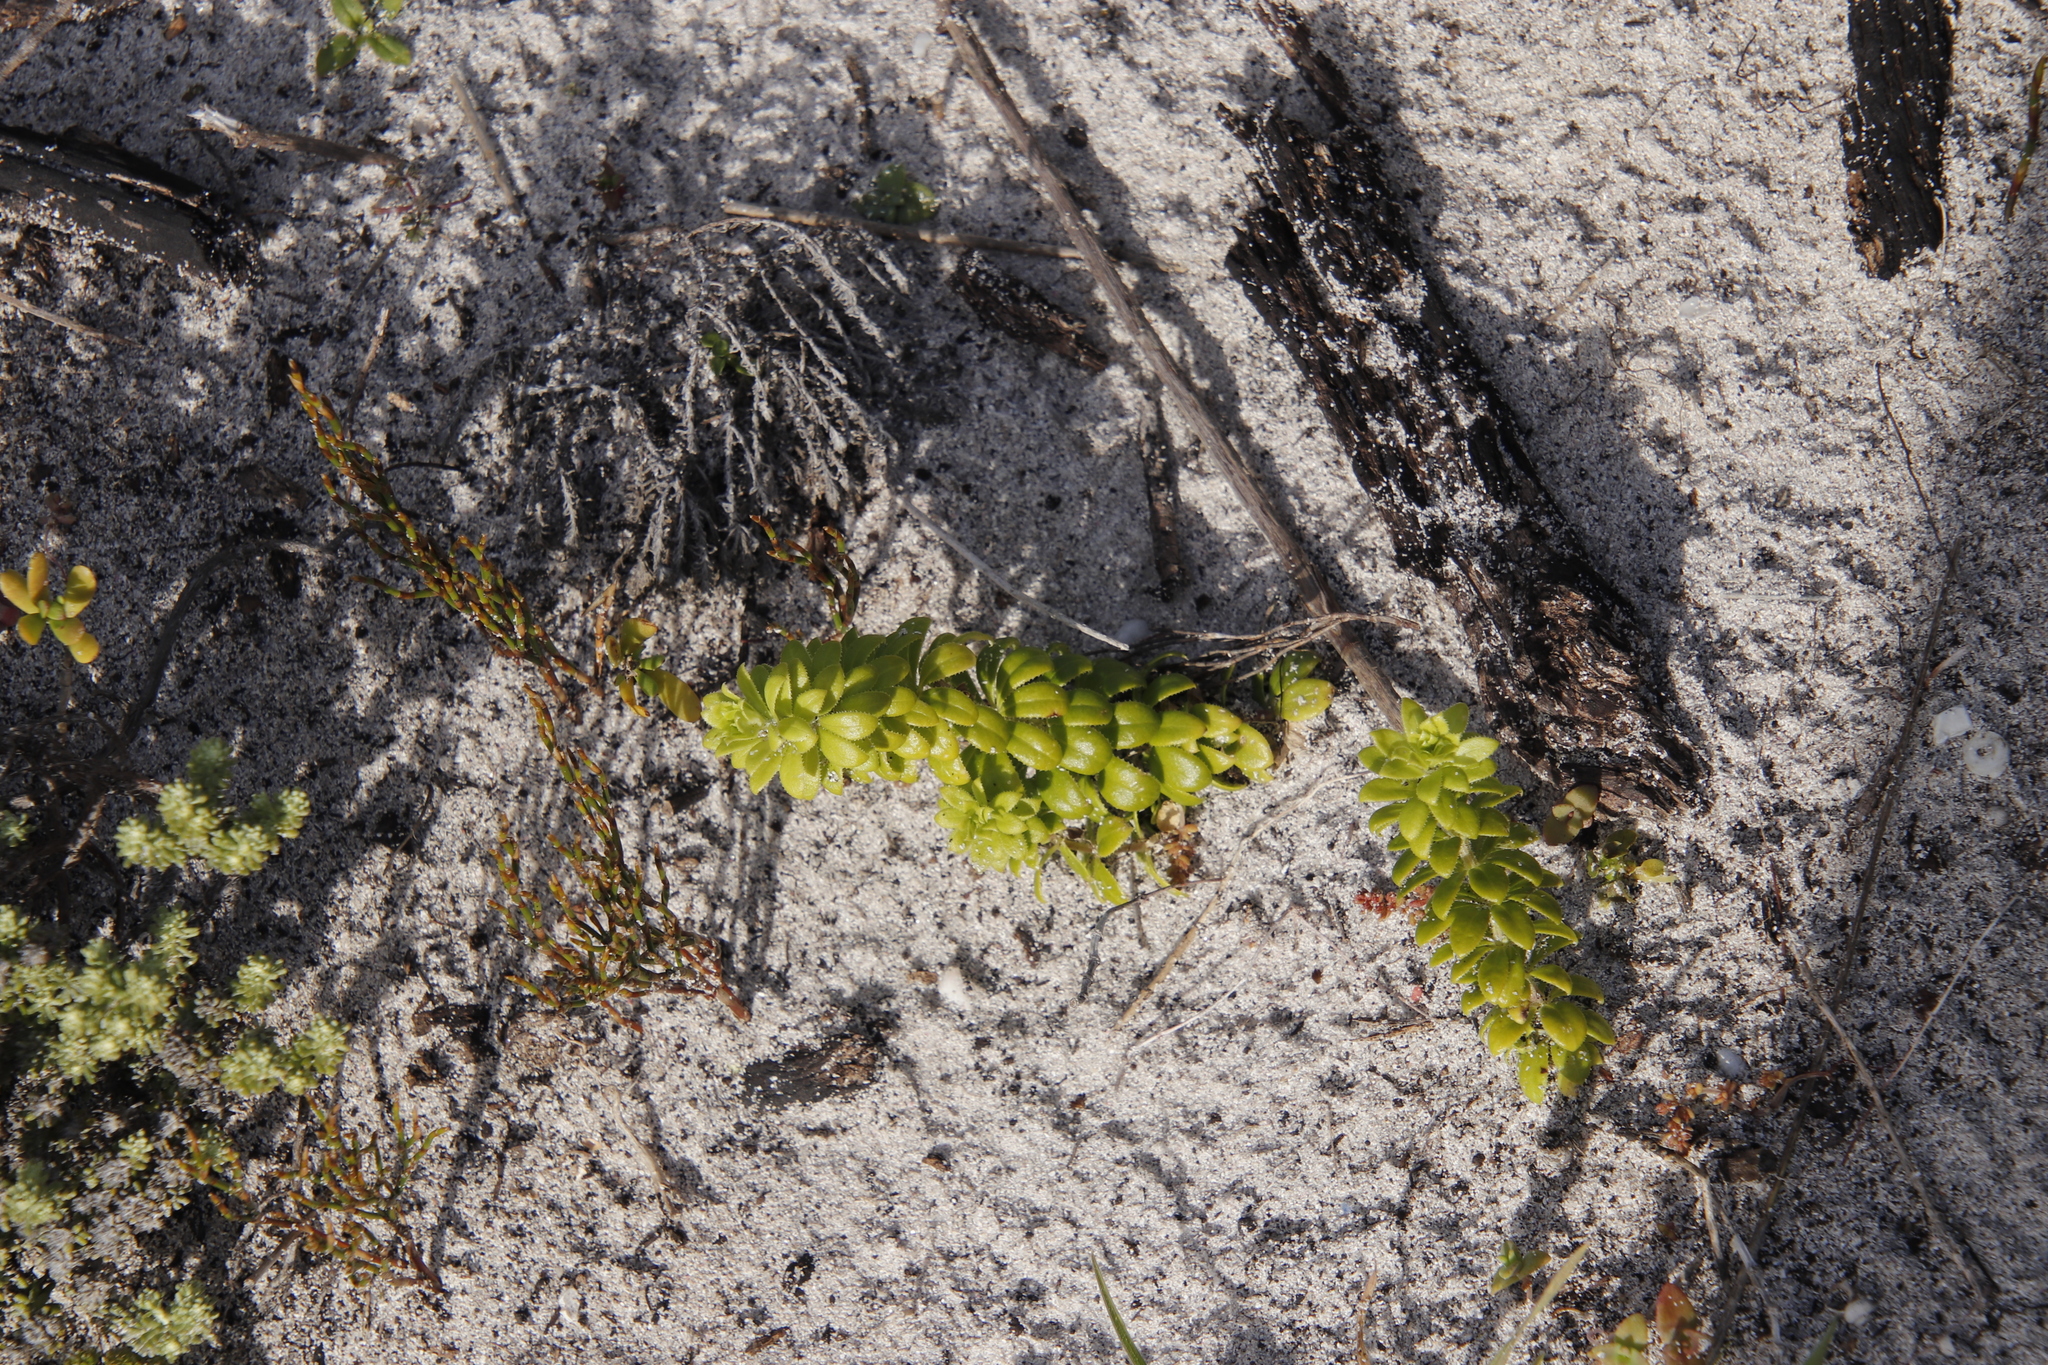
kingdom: Plantae
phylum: Tracheophyta
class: Magnoliopsida
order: Gentianales
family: Rubiaceae
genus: Galium
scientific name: Galium tomentosum
